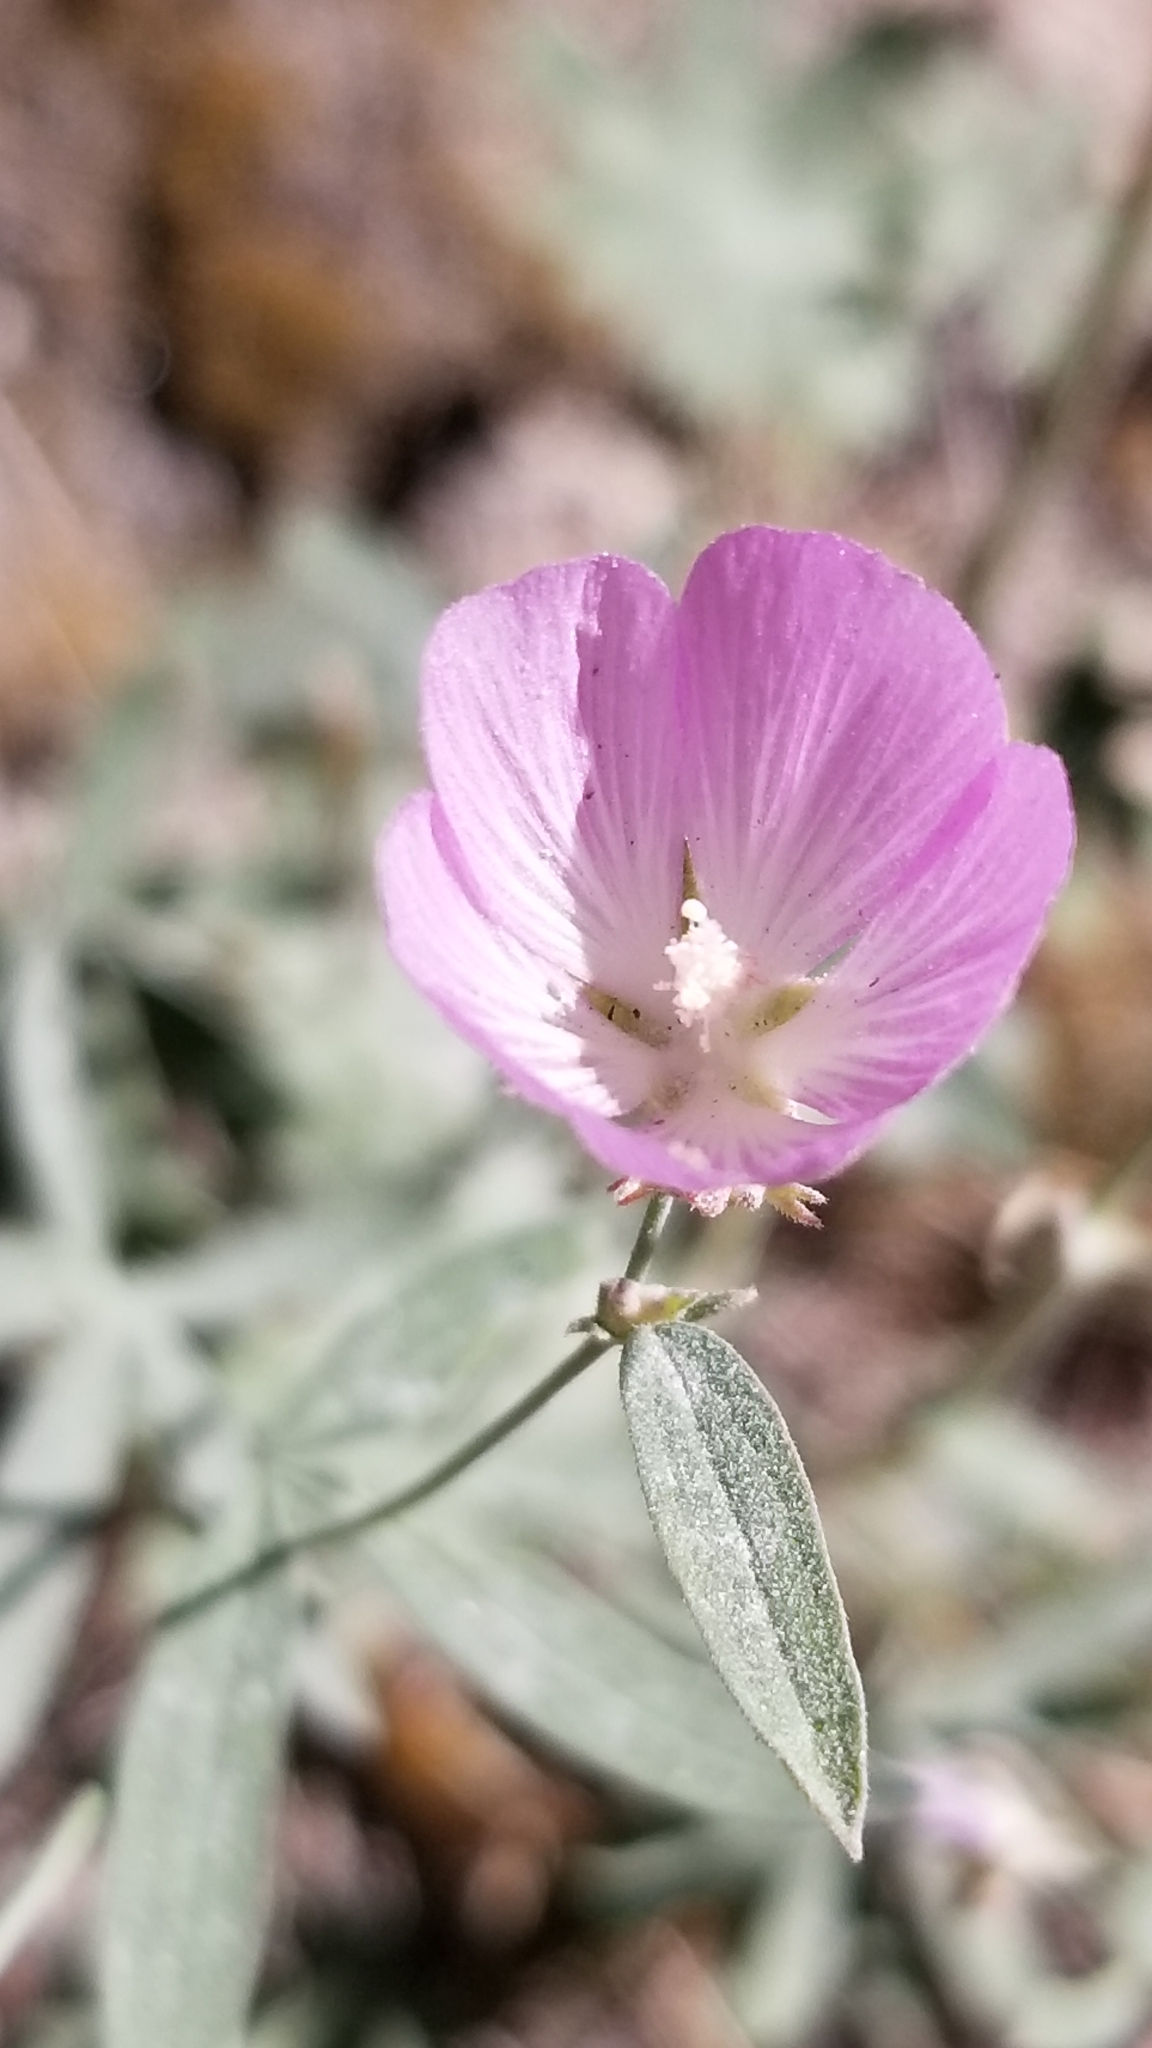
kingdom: Plantae
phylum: Tracheophyta
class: Magnoliopsida
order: Malvales
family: Malvaceae
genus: Sidalcea
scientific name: Sidalcea glaucescens
